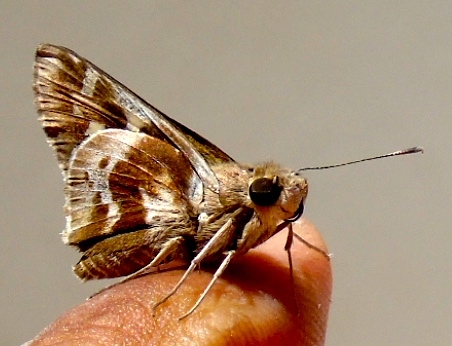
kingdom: Animalia
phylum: Arthropoda
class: Insecta
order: Lepidoptera
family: Hesperiidae
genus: Thespieus
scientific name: Thespieus macareus
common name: Chestnut-marked skipper
